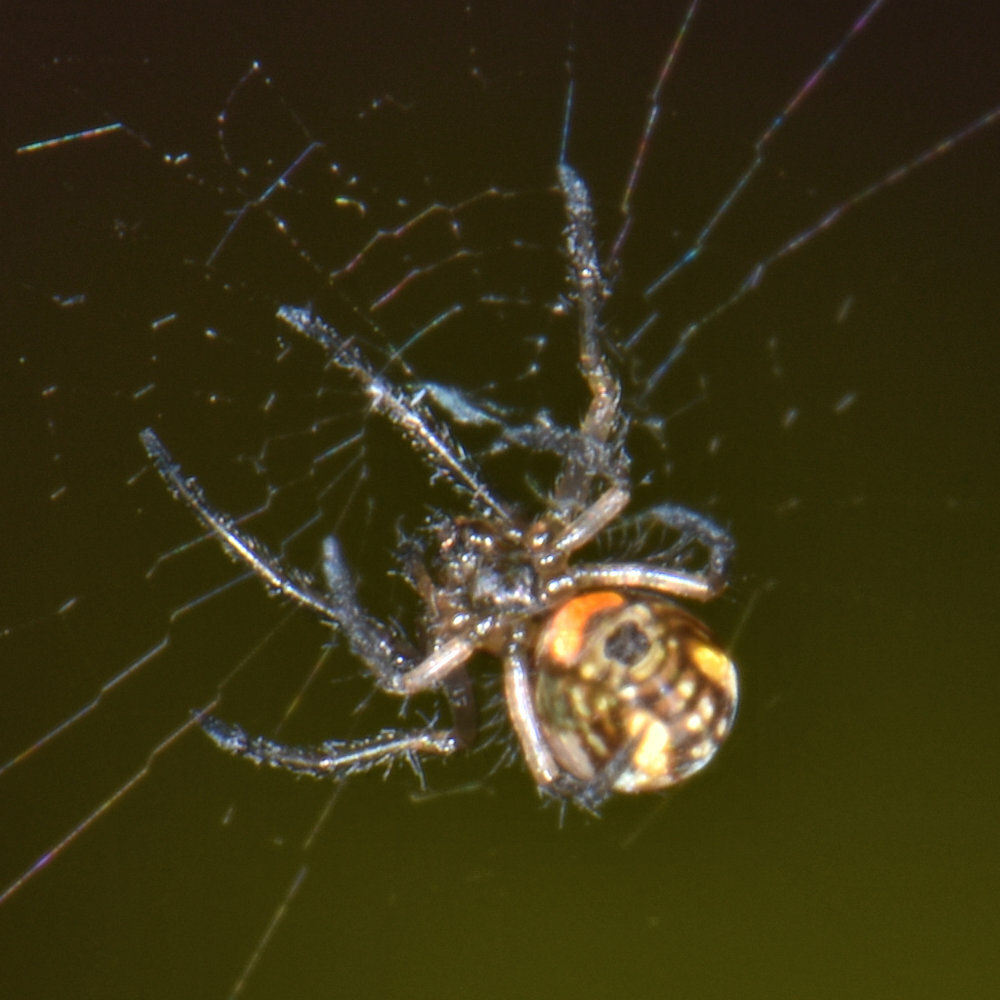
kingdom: Animalia
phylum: Arthropoda
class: Arachnida
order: Araneae
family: Tetragnathidae
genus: Leucauge
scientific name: Leucauge venusta
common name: Longjawed orb weavers
